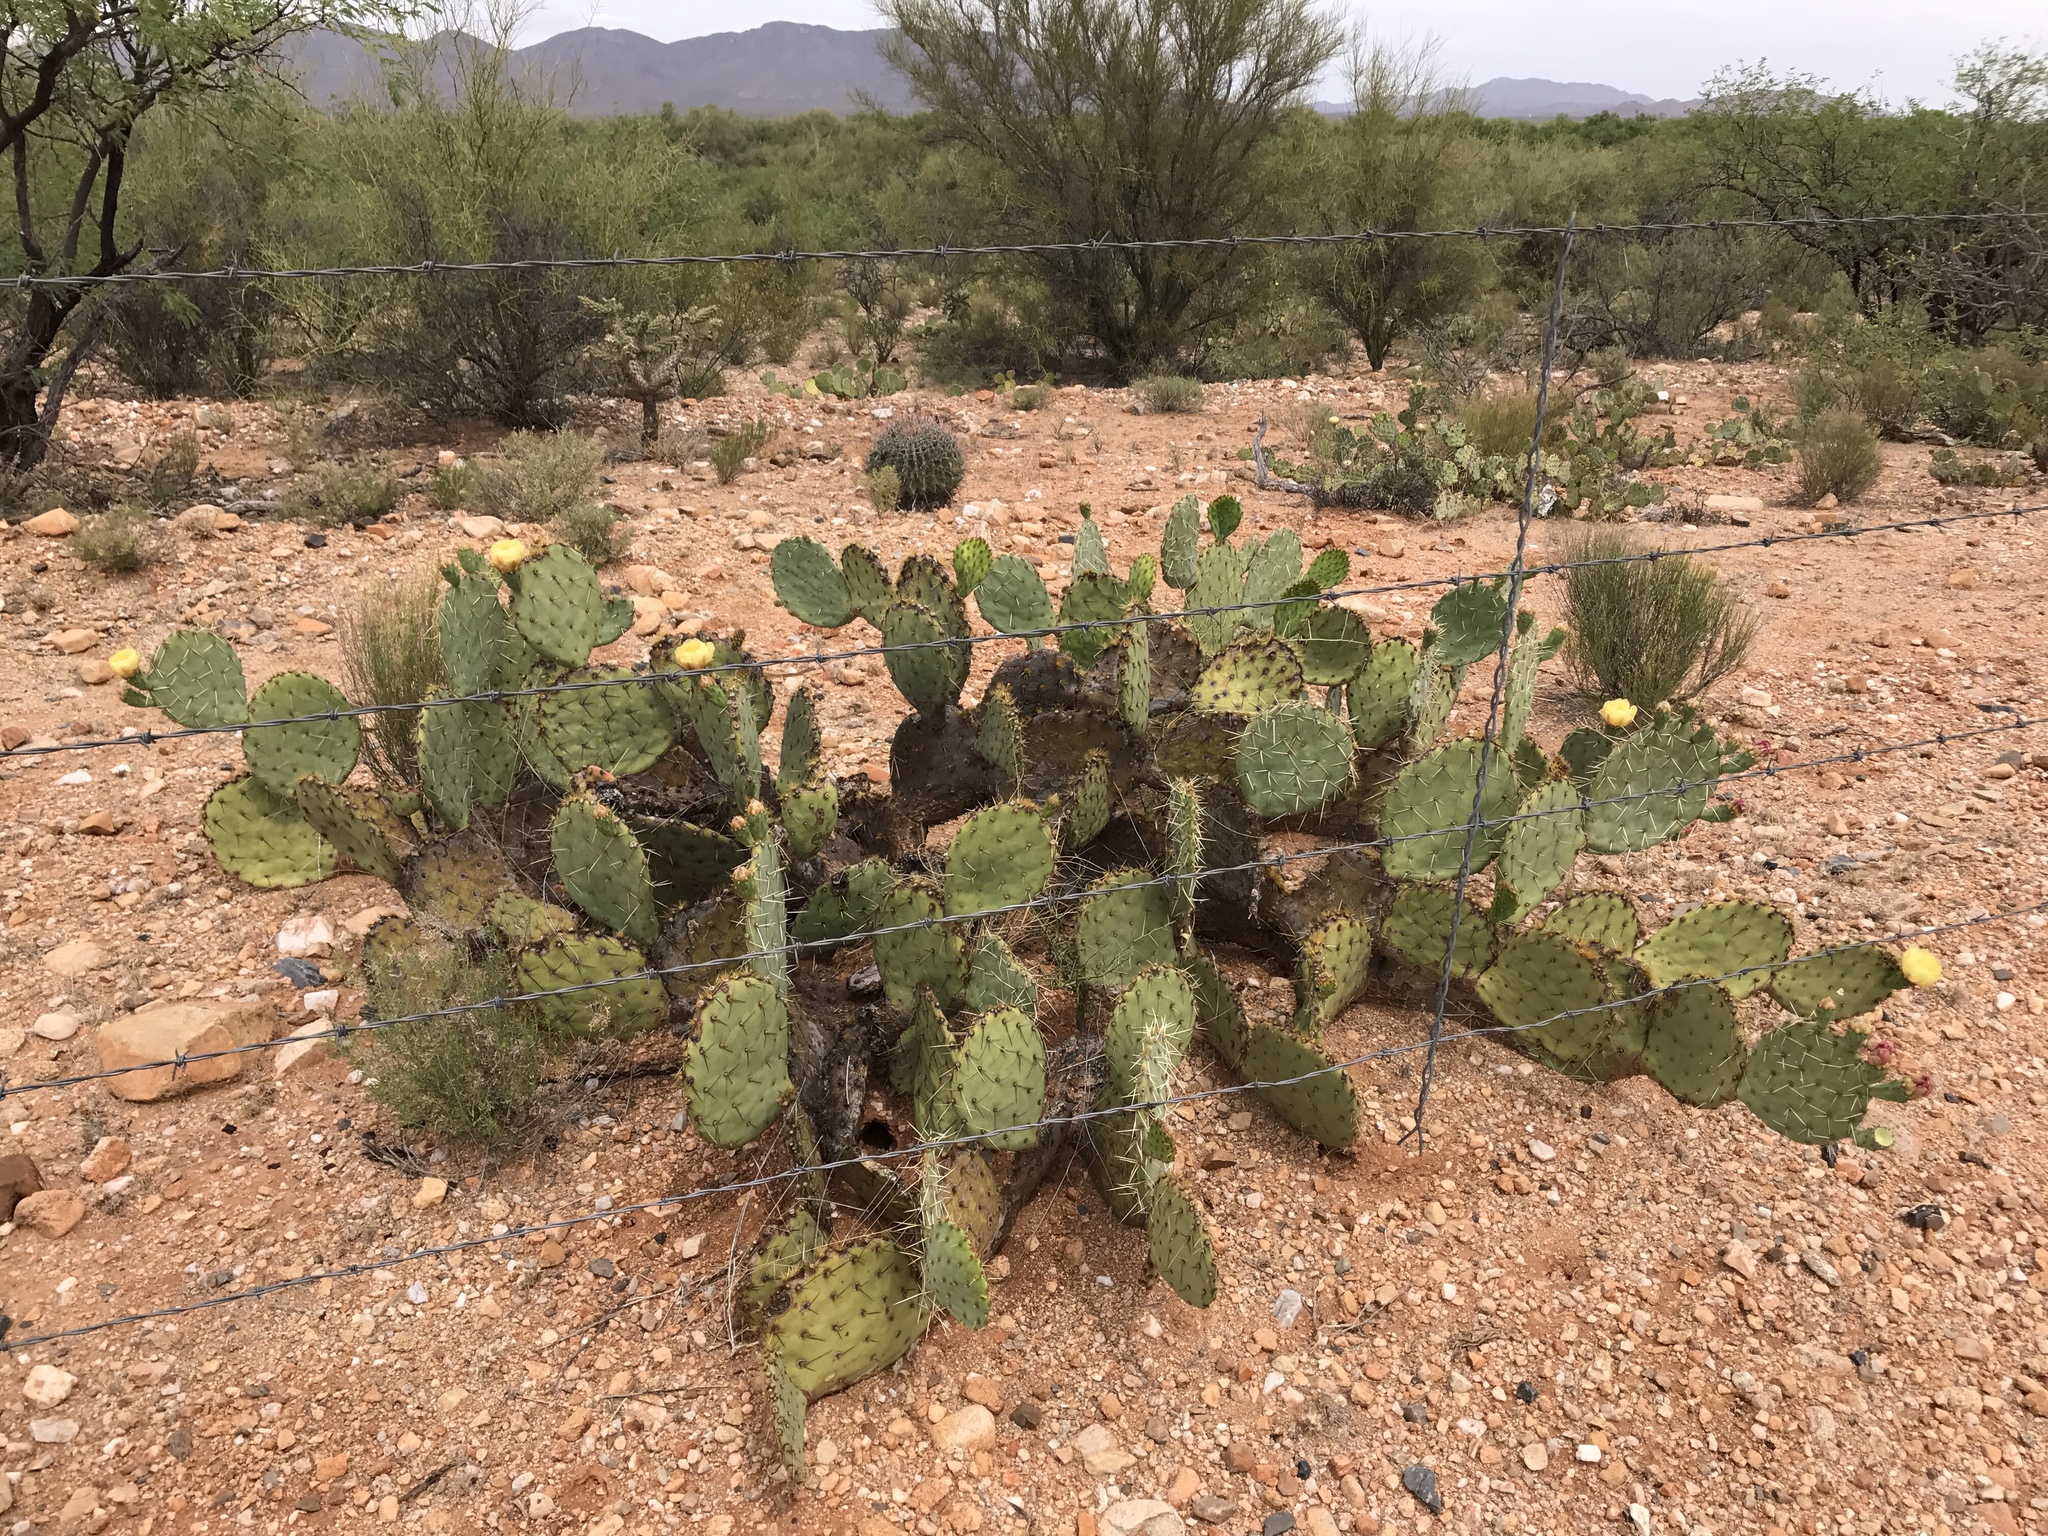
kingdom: Plantae
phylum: Tracheophyta
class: Magnoliopsida
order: Caryophyllales
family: Cactaceae
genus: Opuntia
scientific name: Opuntia engelmannii
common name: Cactus-apple
